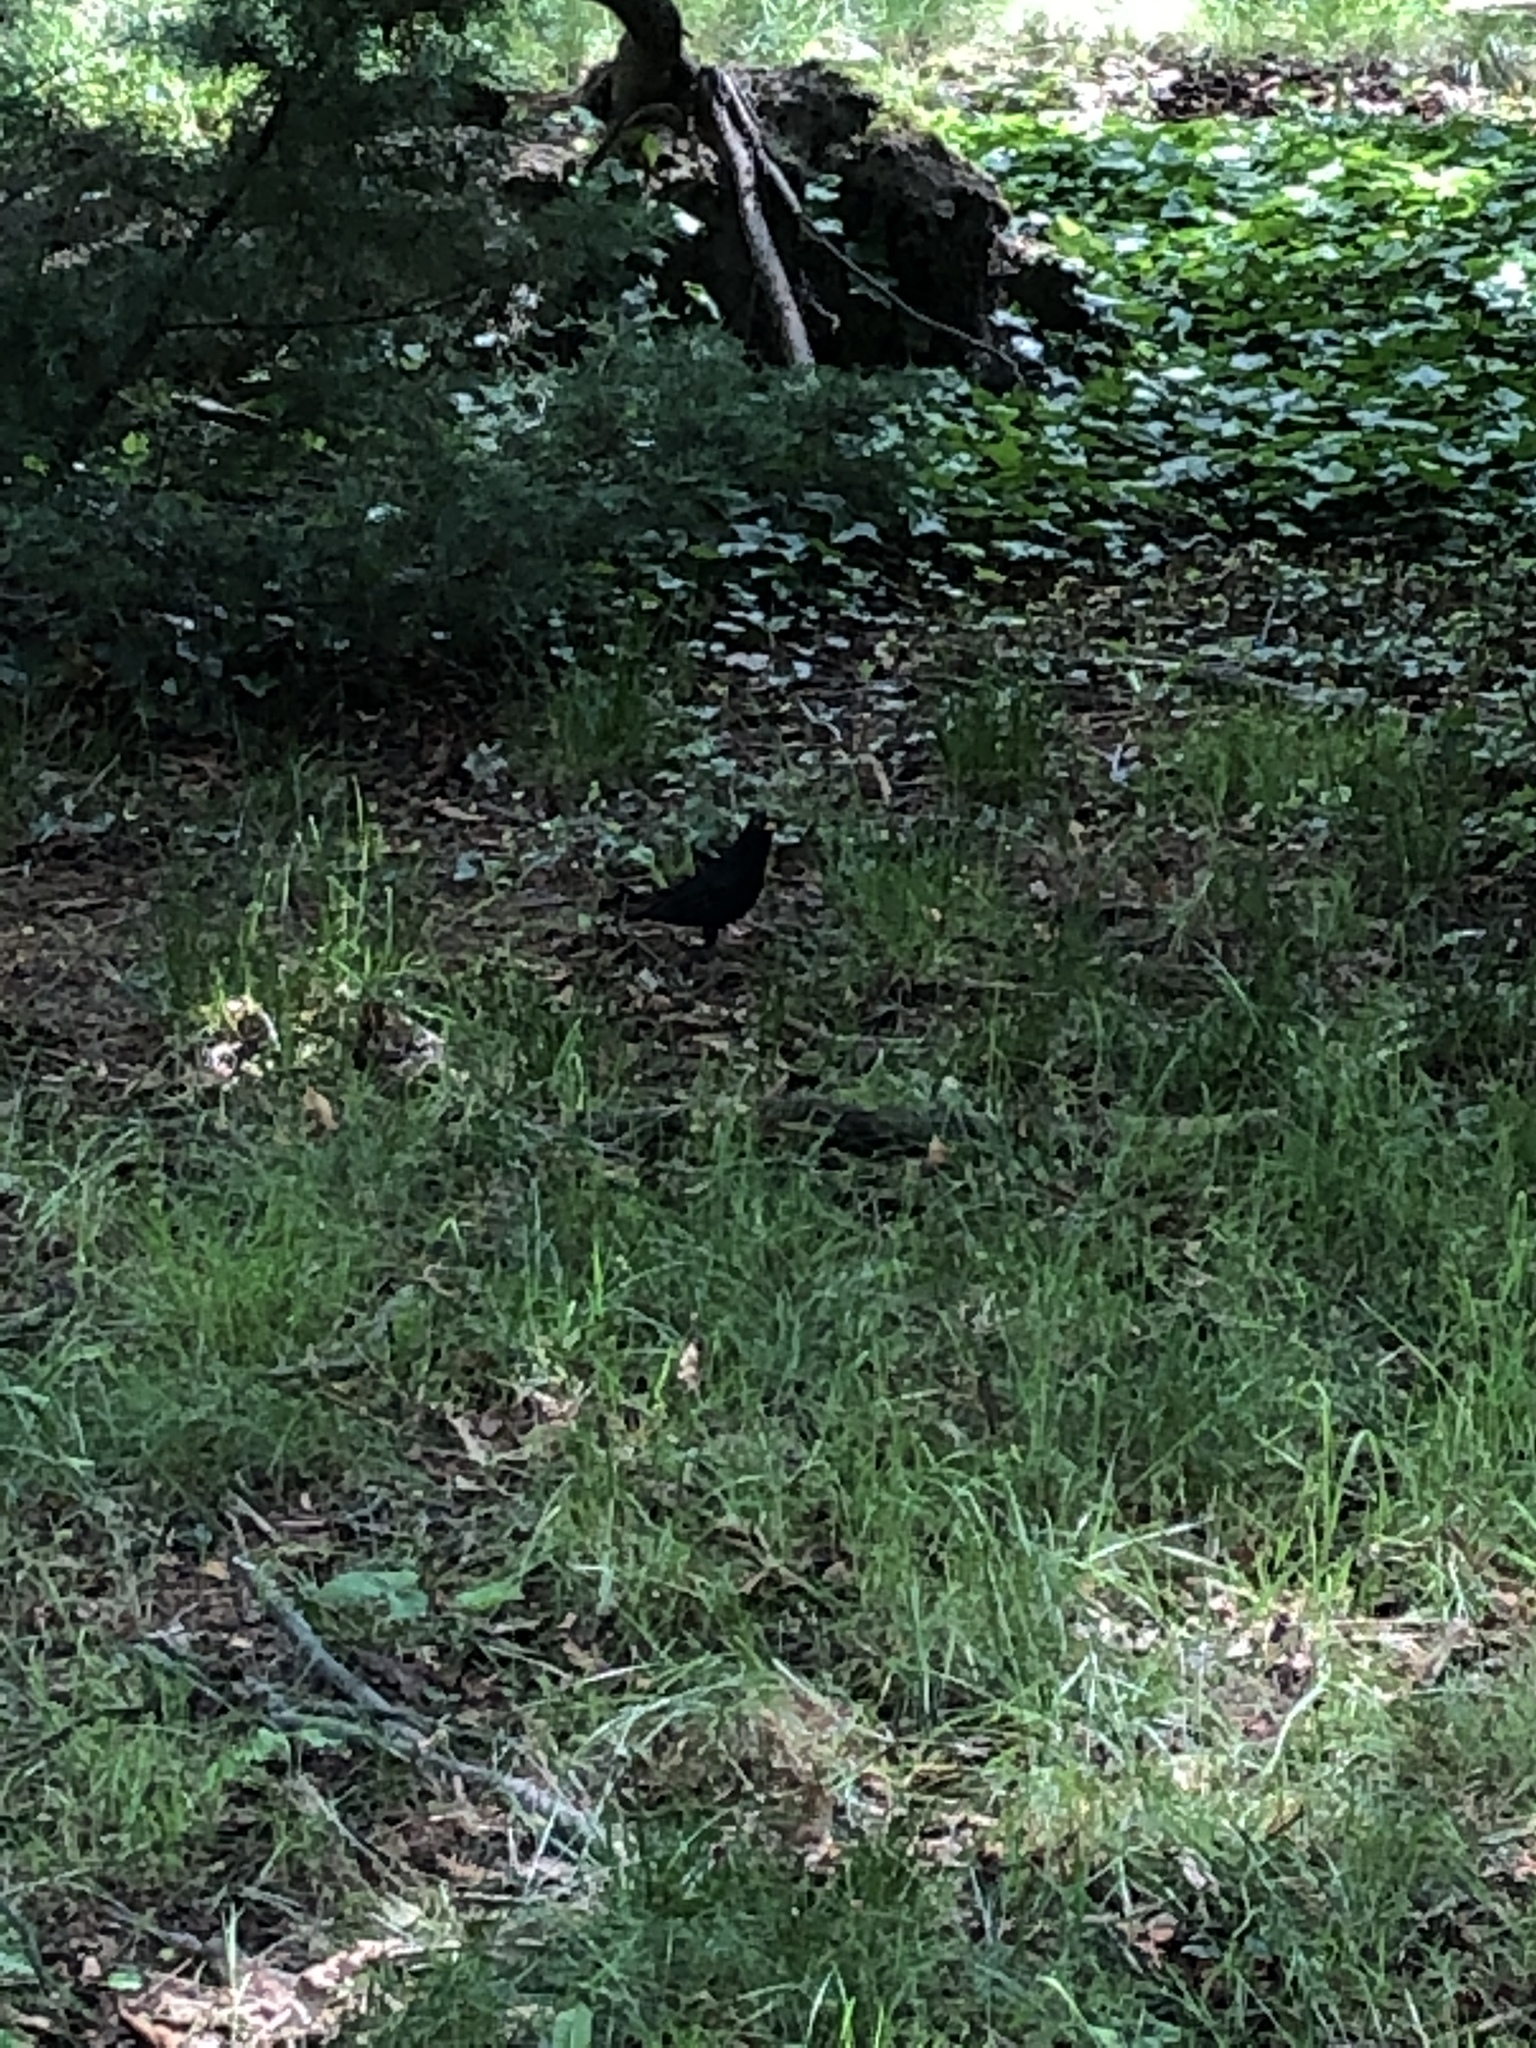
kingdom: Animalia
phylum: Chordata
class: Aves
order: Passeriformes
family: Turdidae
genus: Turdus
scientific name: Turdus merula
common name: Common blackbird
